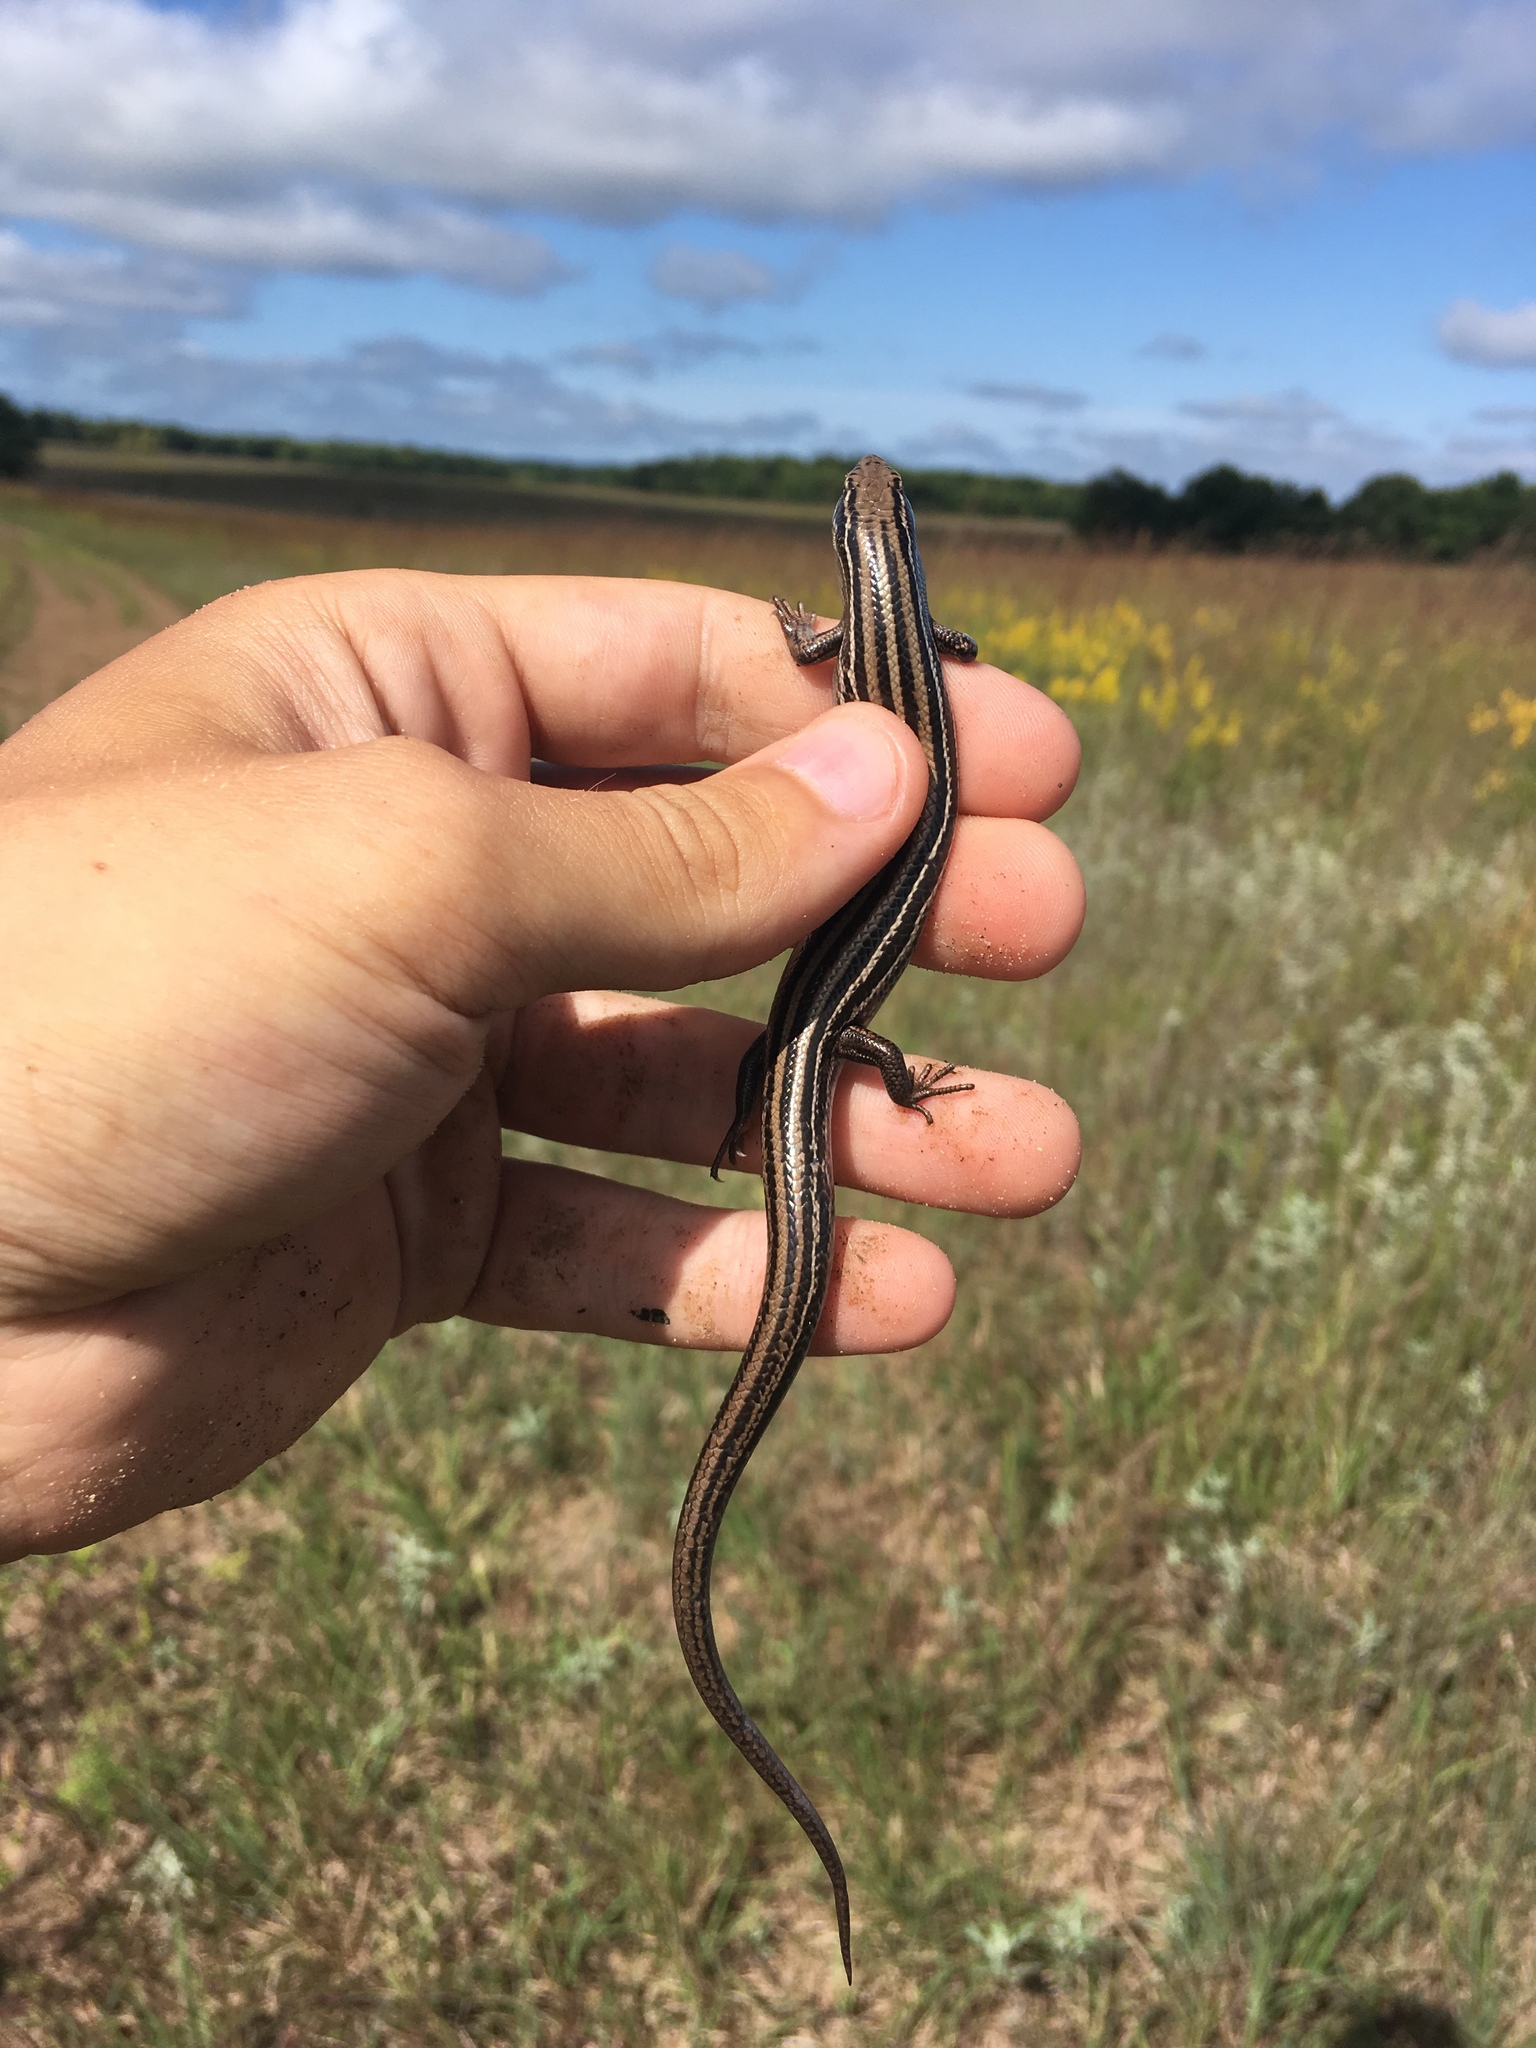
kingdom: Animalia
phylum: Chordata
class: Squamata
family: Scincidae
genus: Plestiodon
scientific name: Plestiodon septentrionalis
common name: Northern prairie skink
